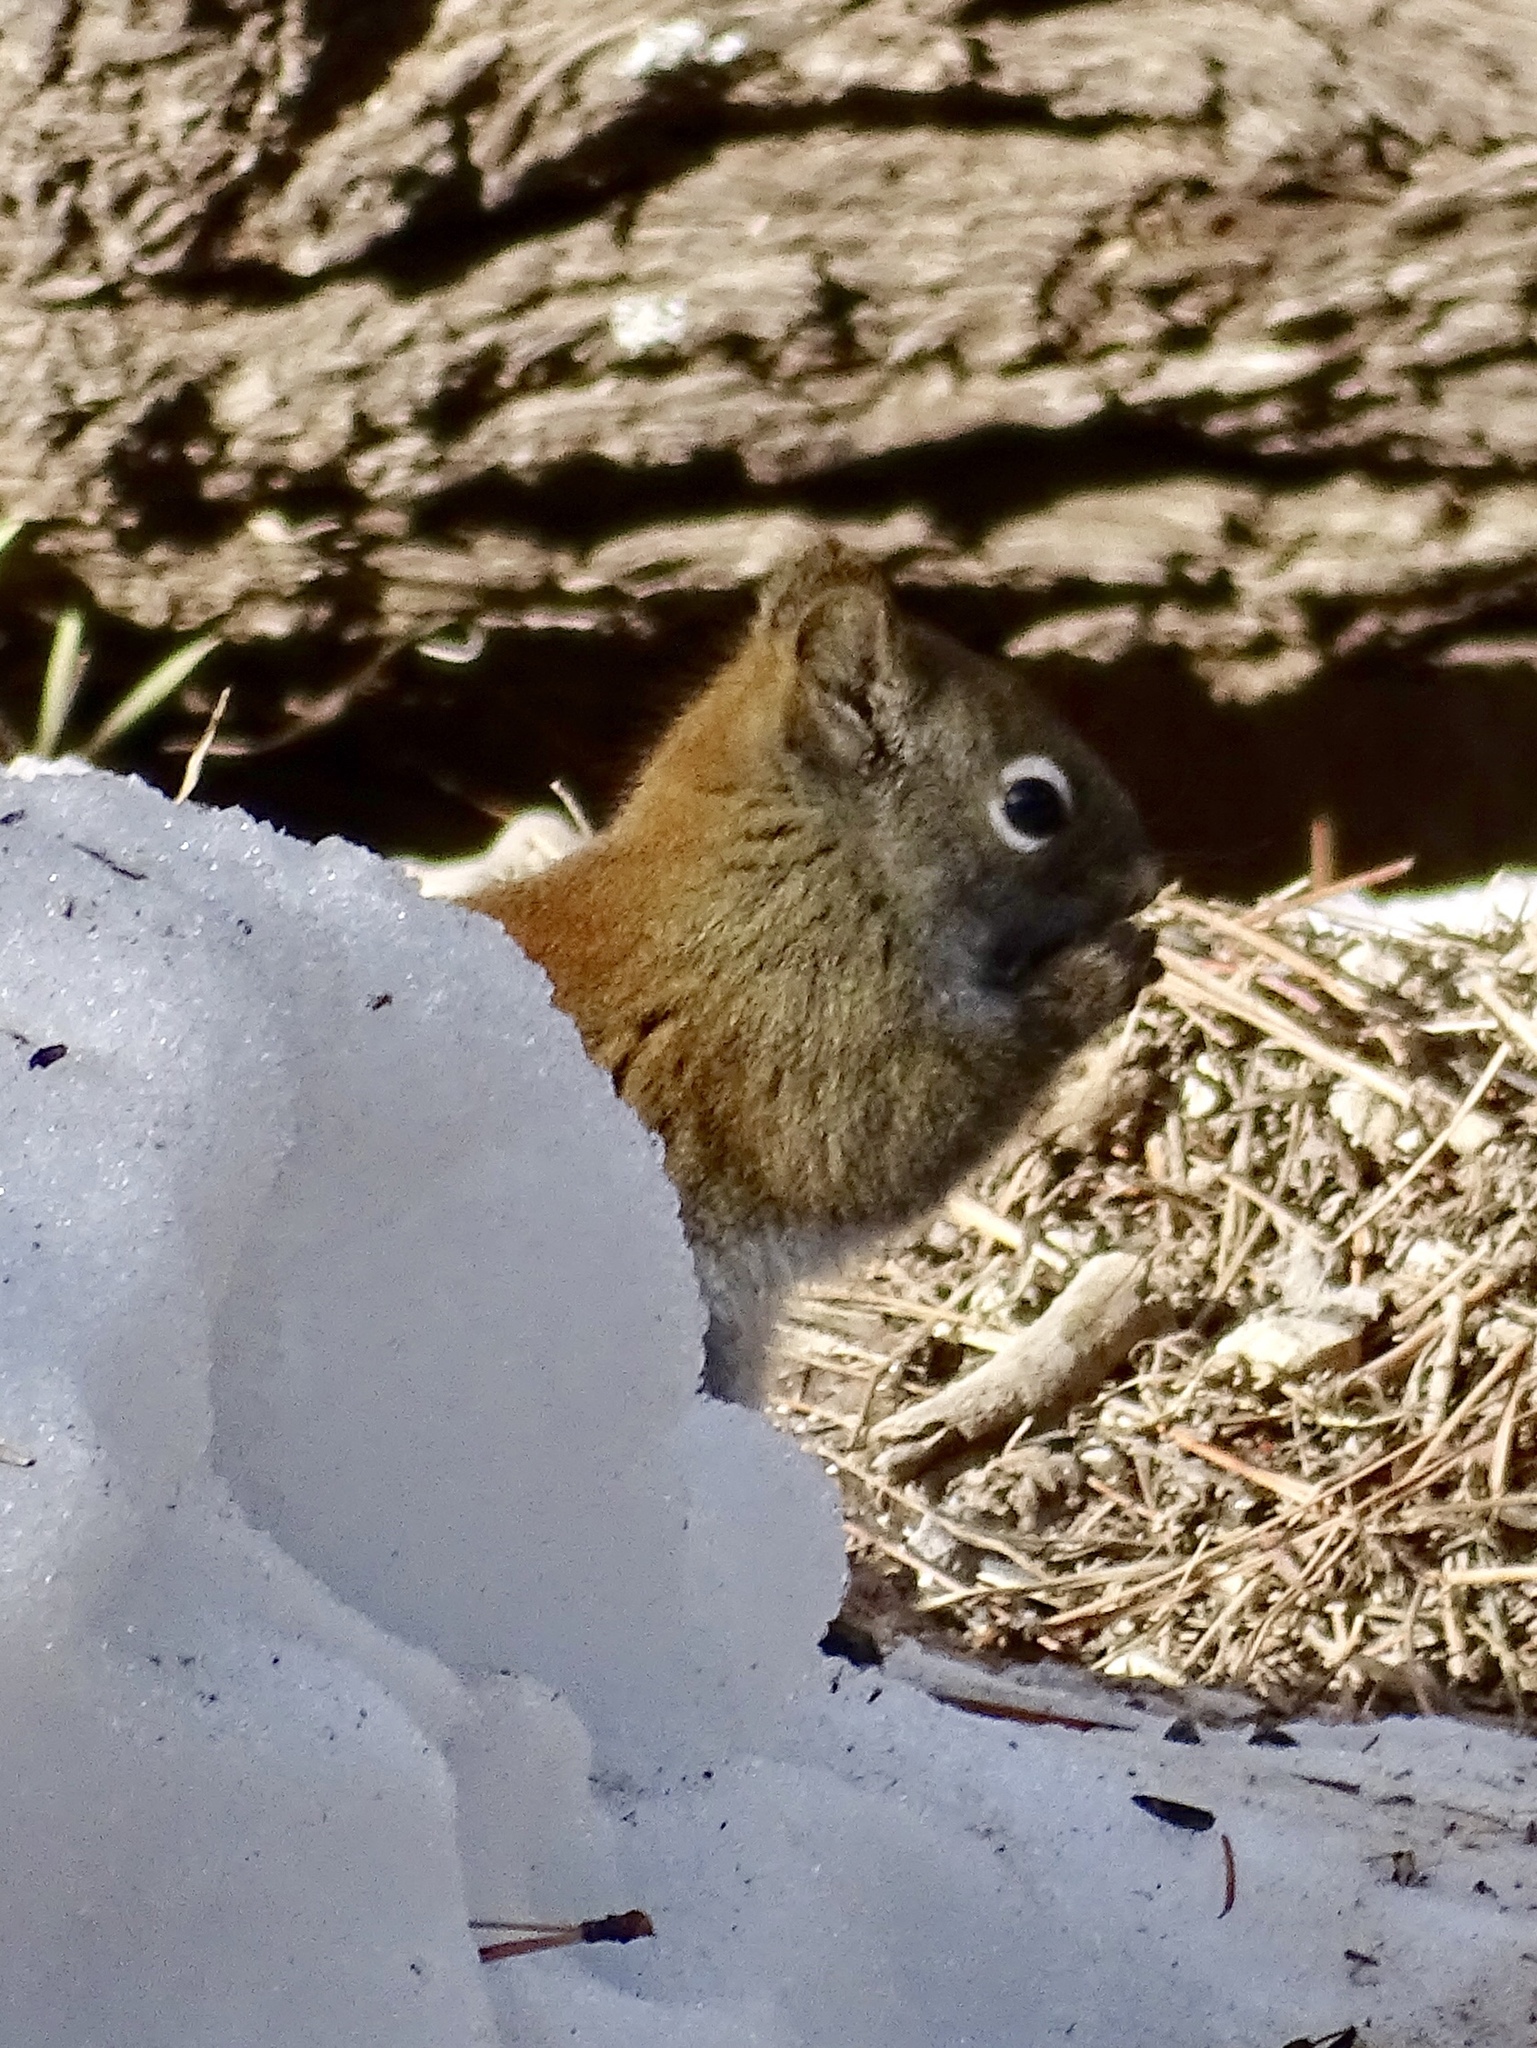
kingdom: Animalia
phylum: Chordata
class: Mammalia
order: Rodentia
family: Sciuridae
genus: Tamiasciurus
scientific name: Tamiasciurus hudsonicus
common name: Red squirrel
